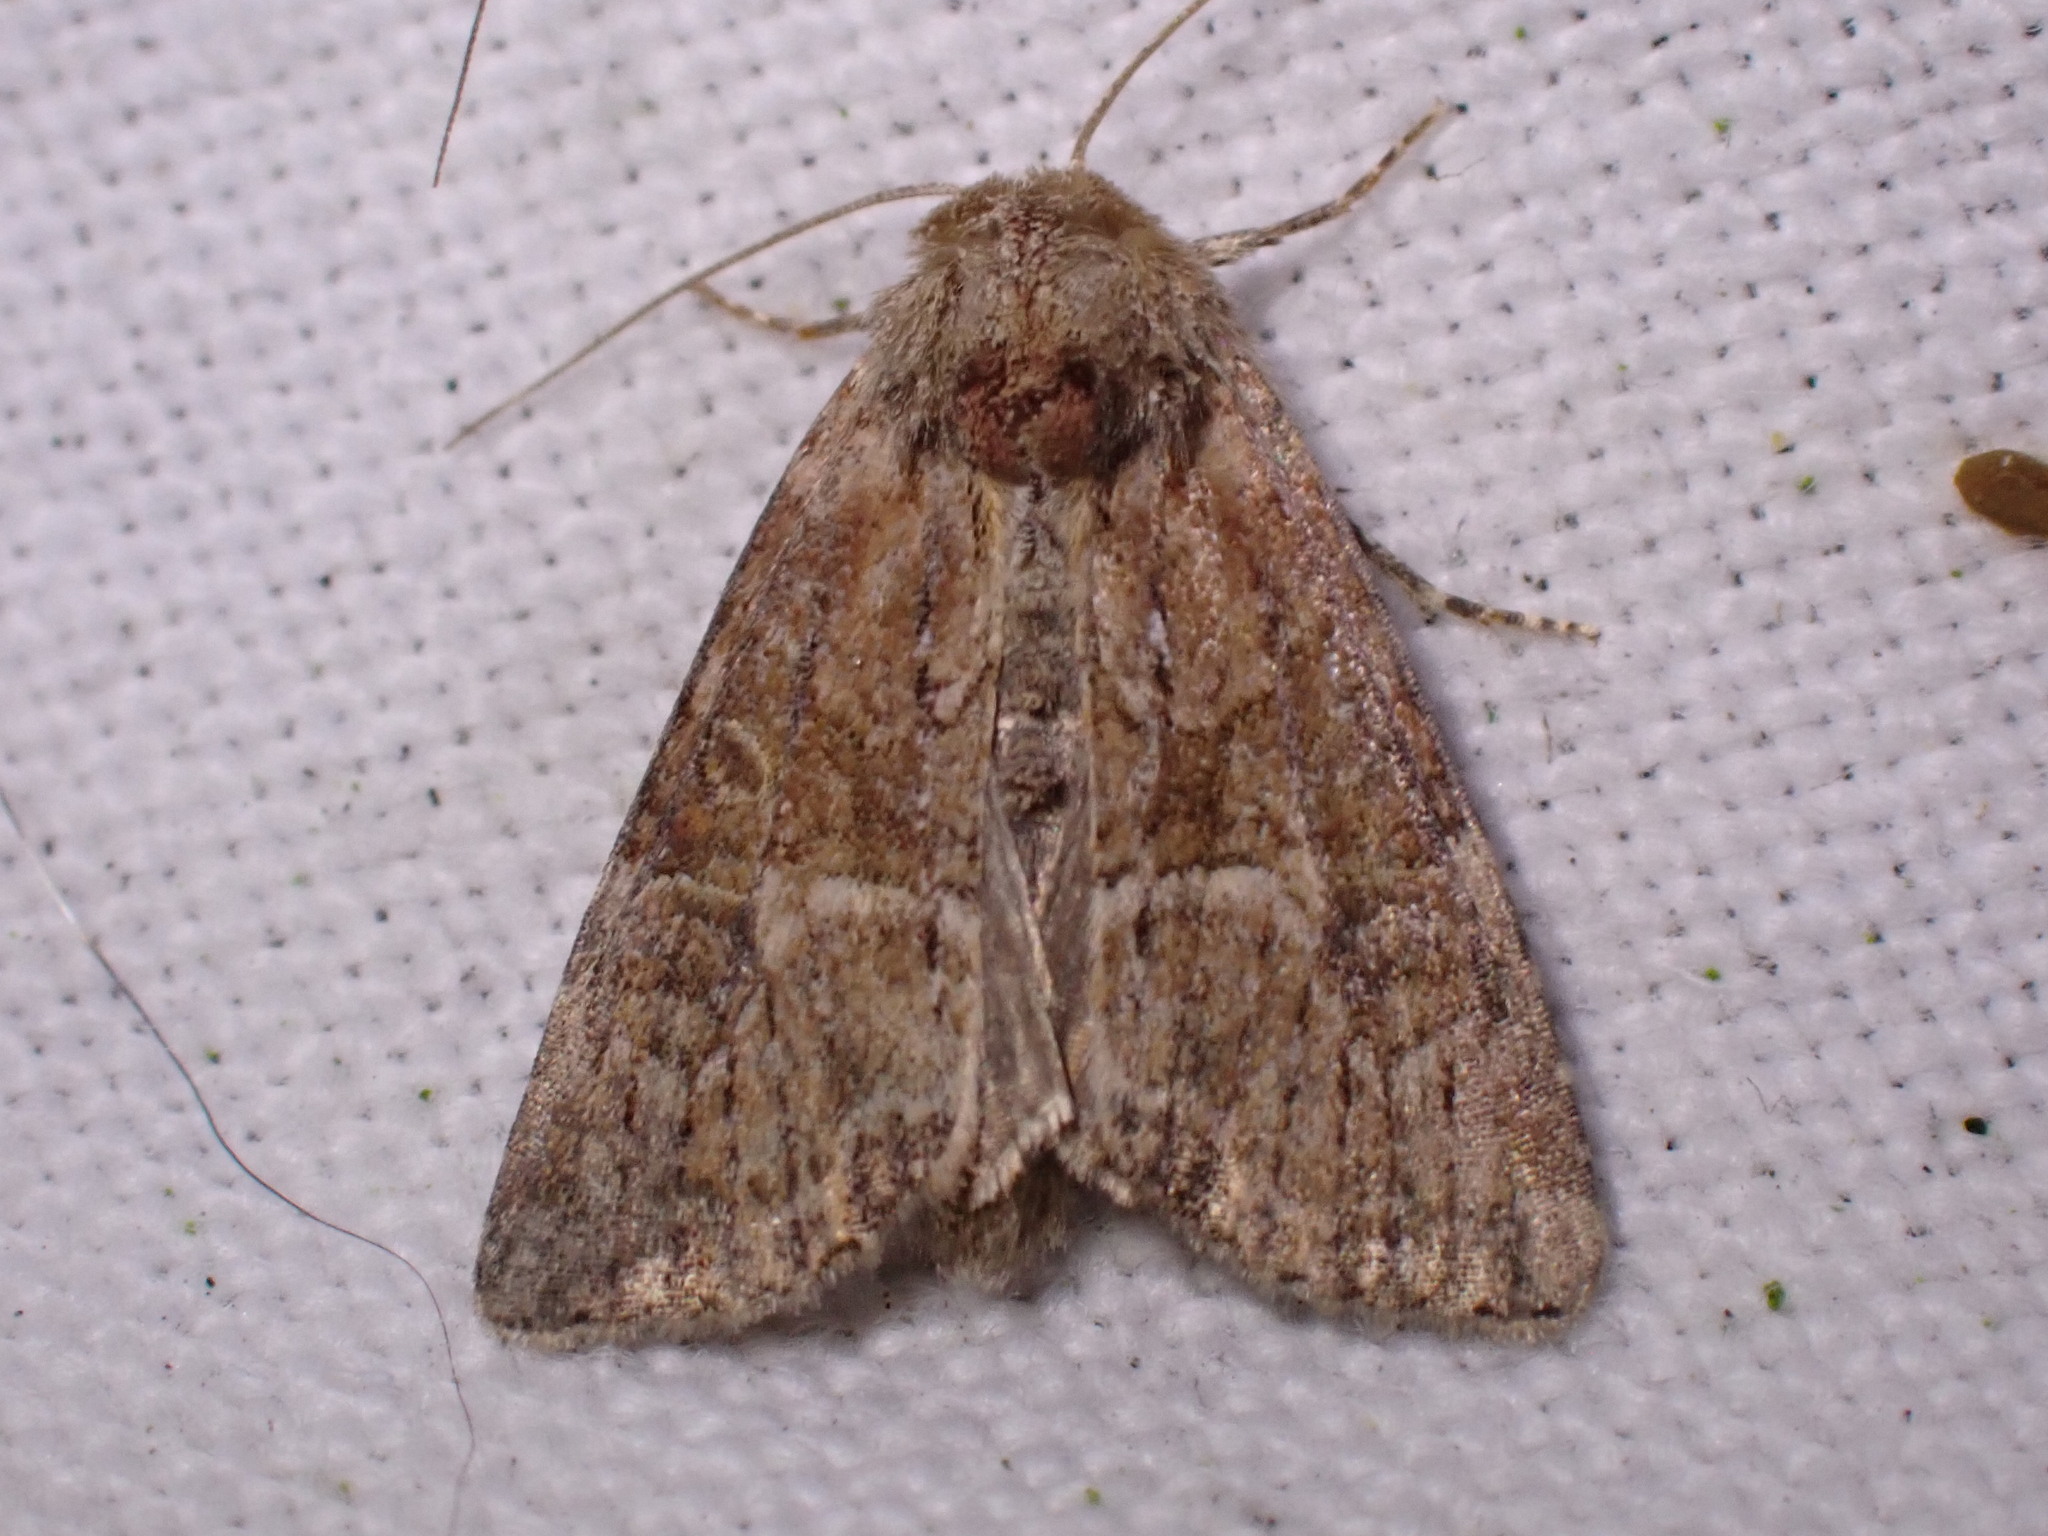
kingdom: Animalia
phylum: Arthropoda
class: Insecta
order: Lepidoptera
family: Noctuidae
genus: Mesoligia
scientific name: Mesoligia furuncula
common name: Cloaked minor
